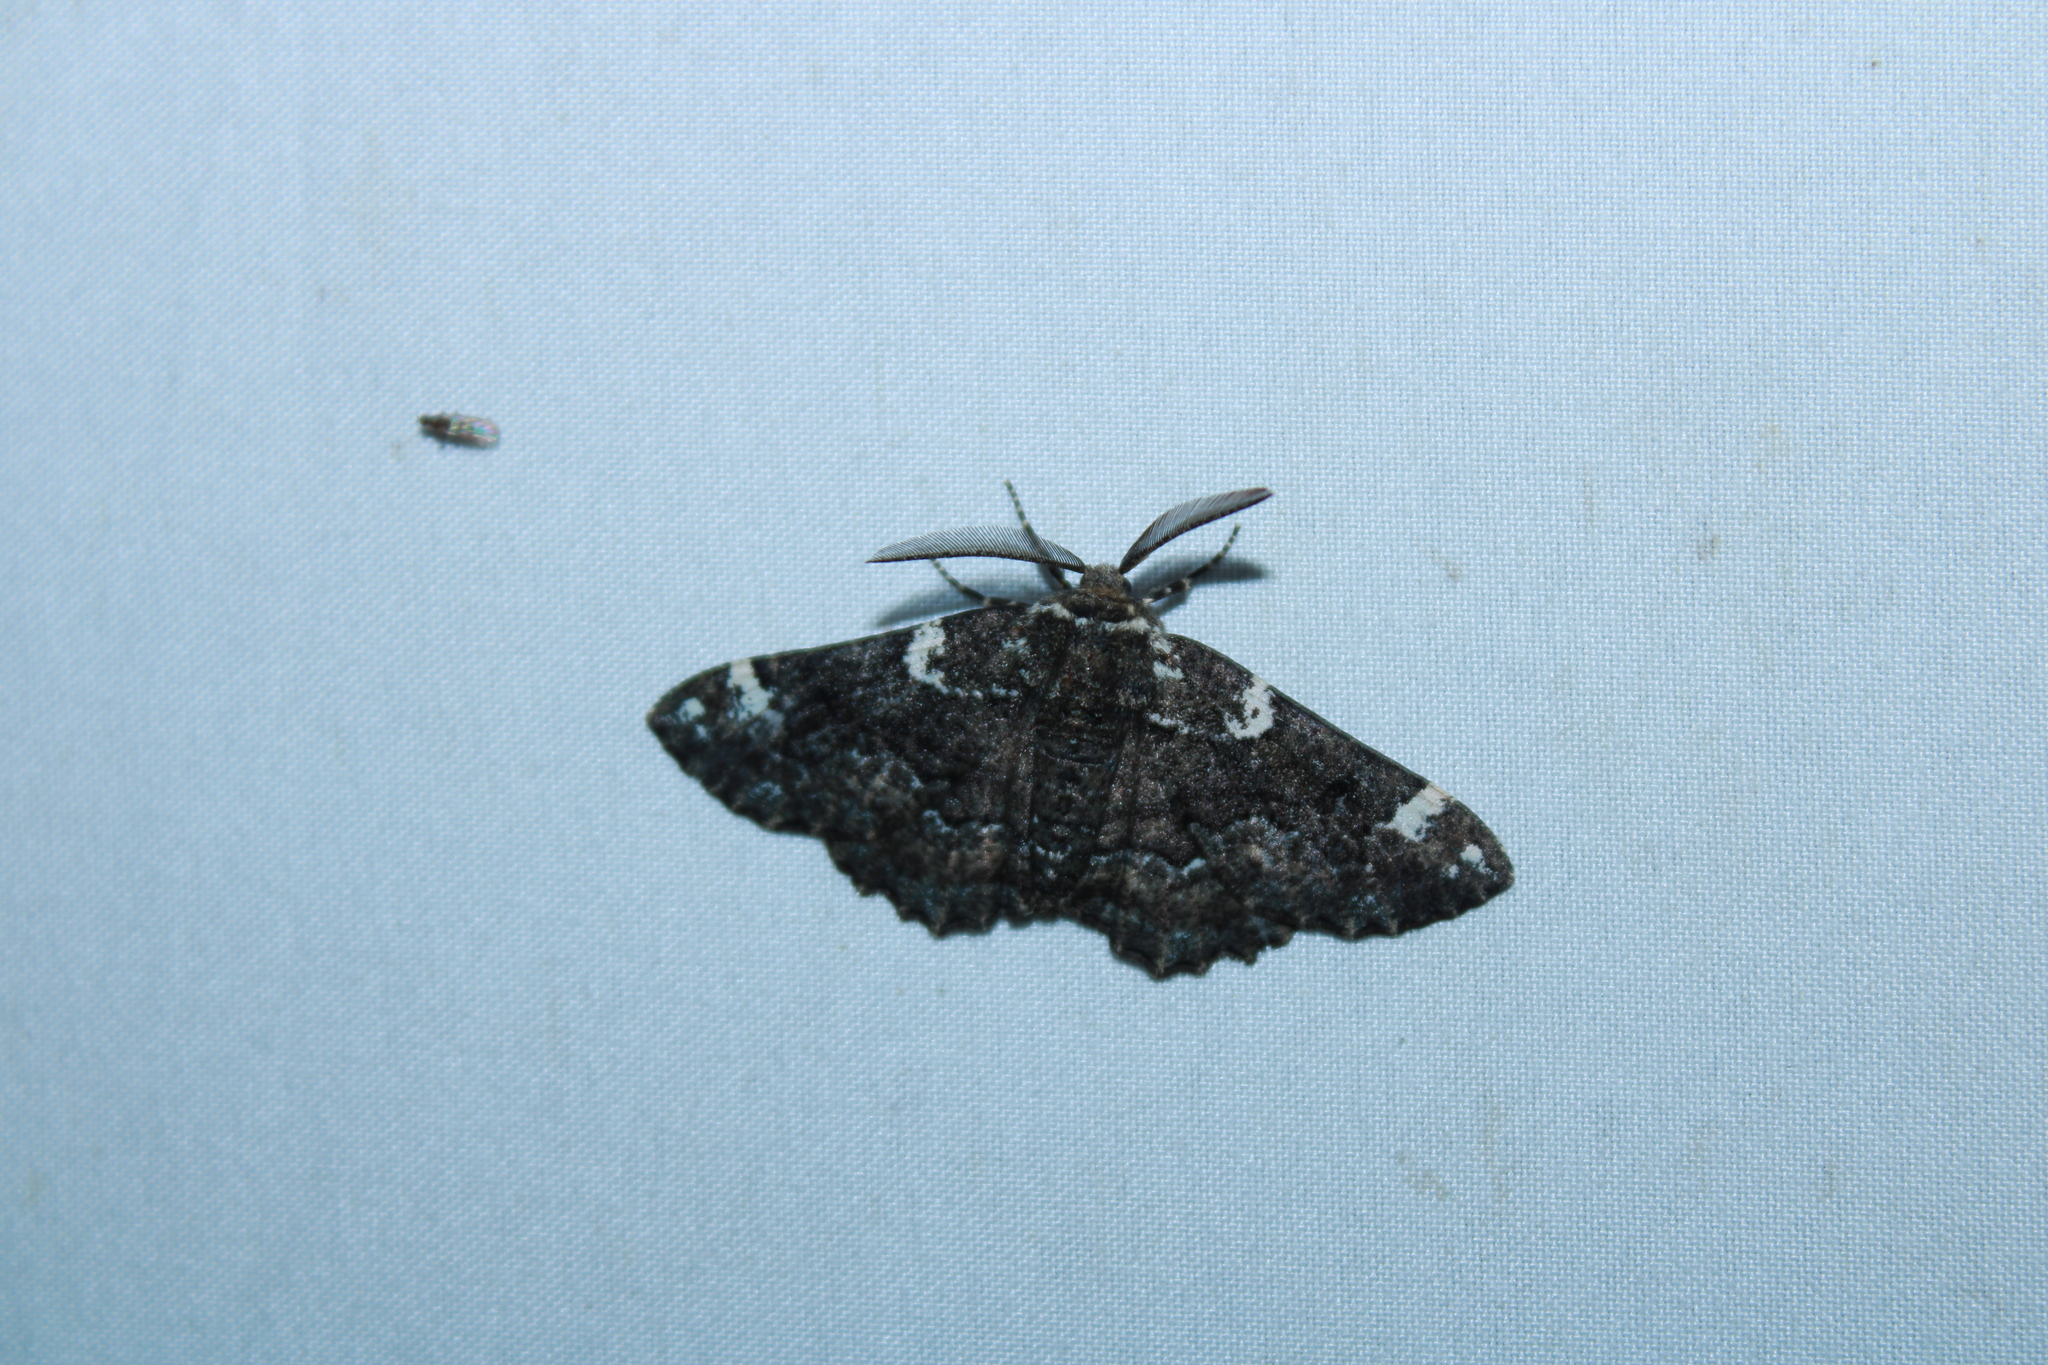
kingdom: Animalia
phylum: Arthropoda
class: Insecta
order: Lepidoptera
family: Geometridae
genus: Phaeoura
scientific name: Phaeoura quernaria
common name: Oak beauty
